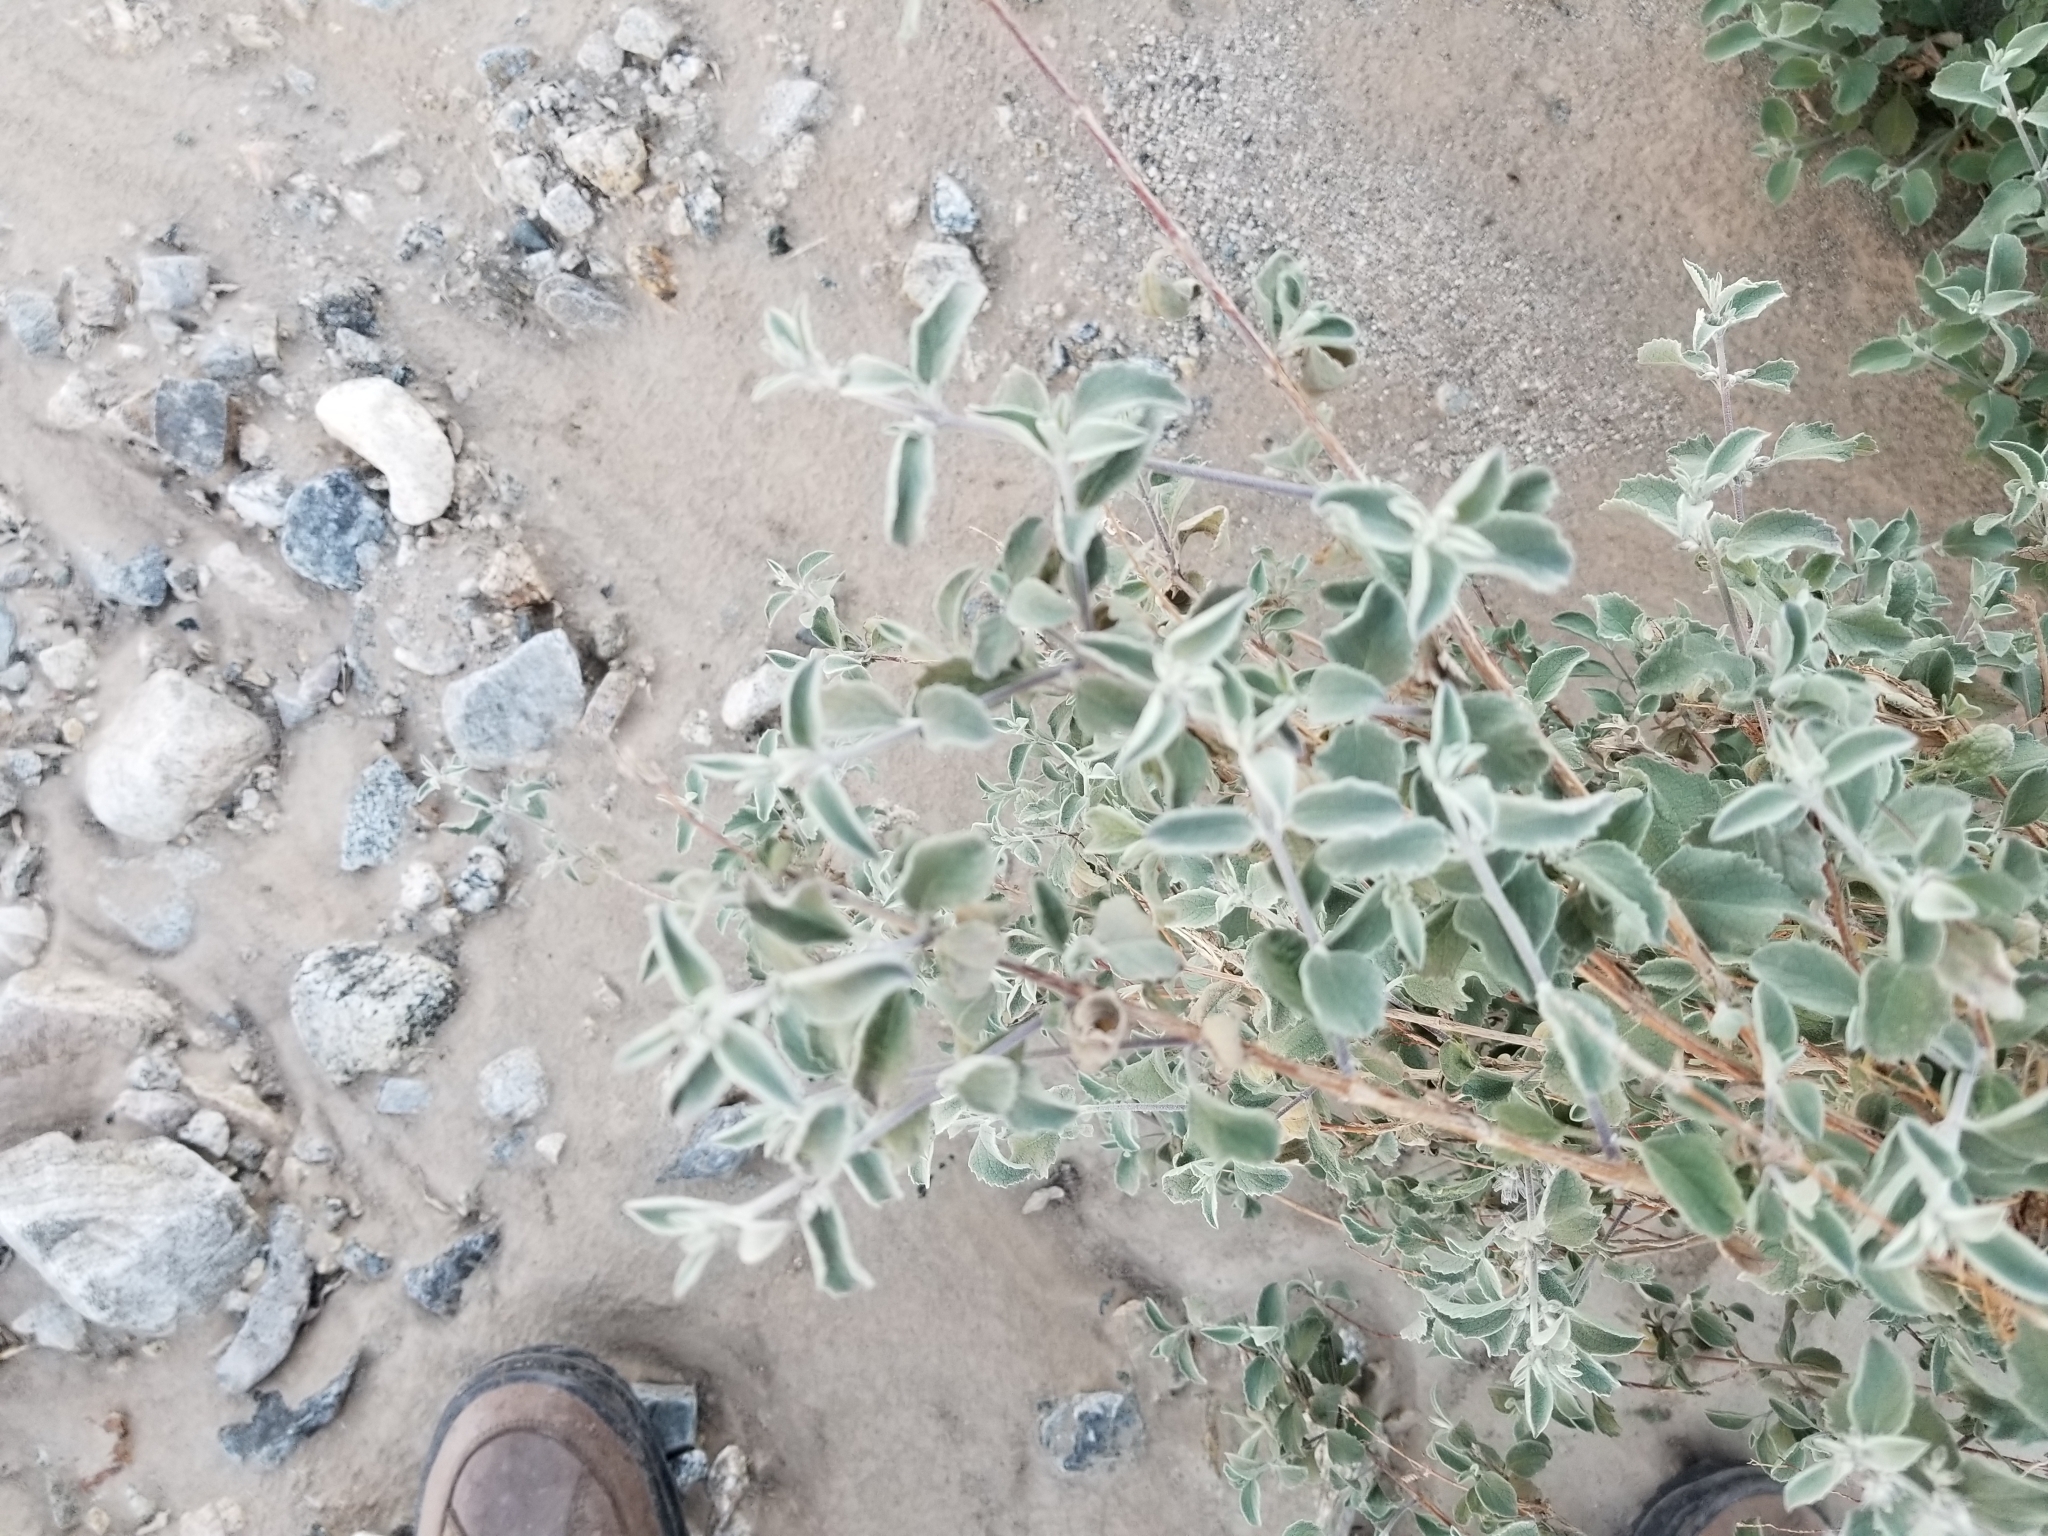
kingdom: Plantae
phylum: Tracheophyta
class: Magnoliopsida
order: Lamiales
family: Lamiaceae
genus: Condea
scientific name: Condea emoryi
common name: Chia
